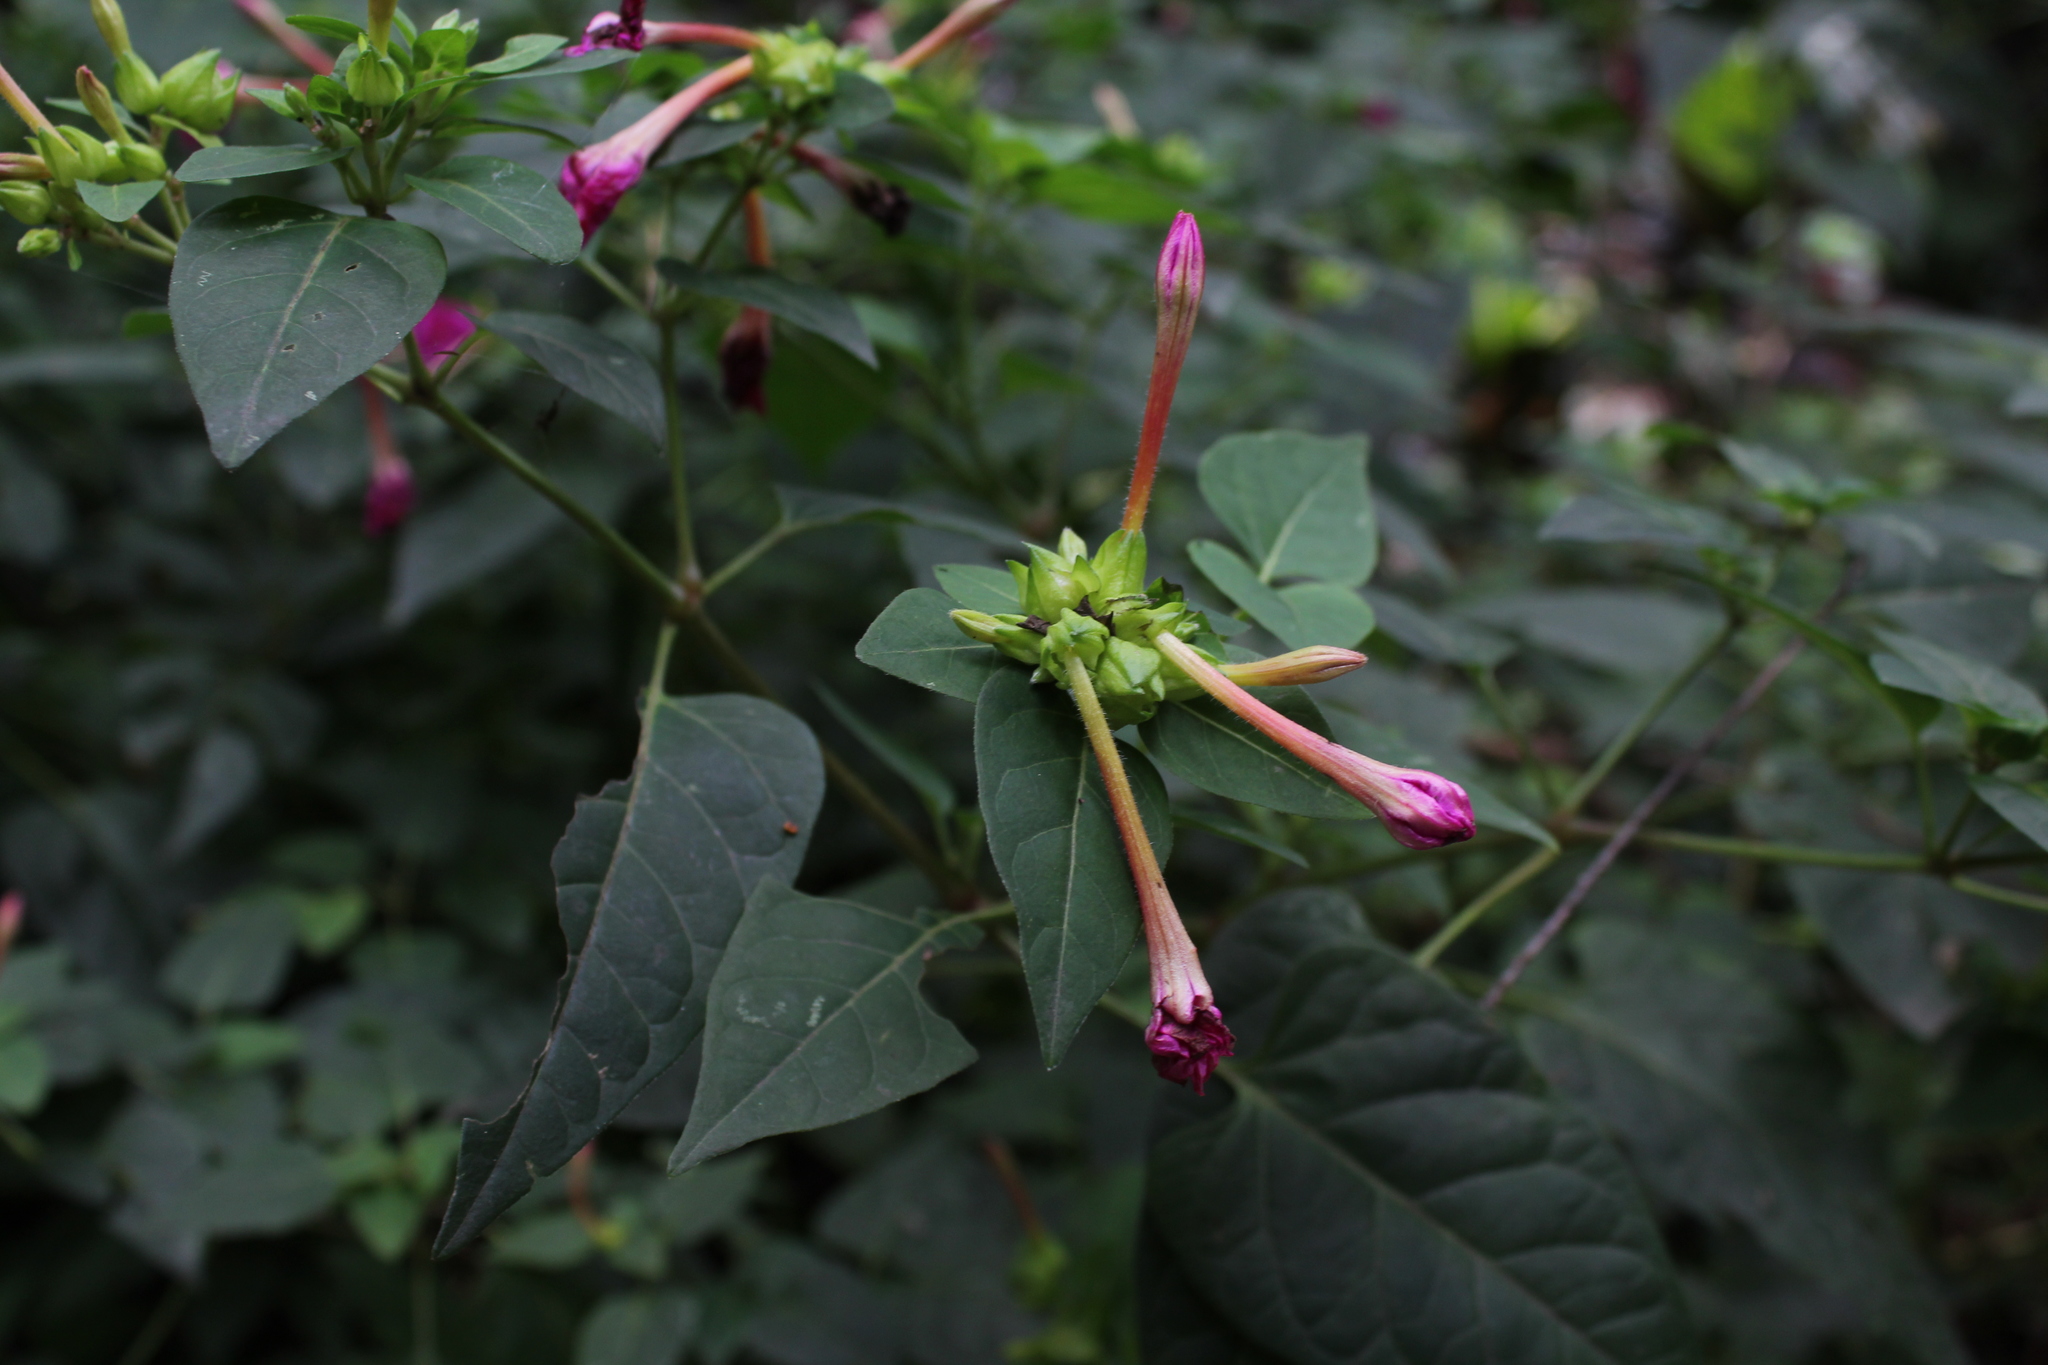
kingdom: Plantae
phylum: Tracheophyta
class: Magnoliopsida
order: Caryophyllales
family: Nyctaginaceae
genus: Mirabilis
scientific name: Mirabilis jalapa
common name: Marvel-of-peru
